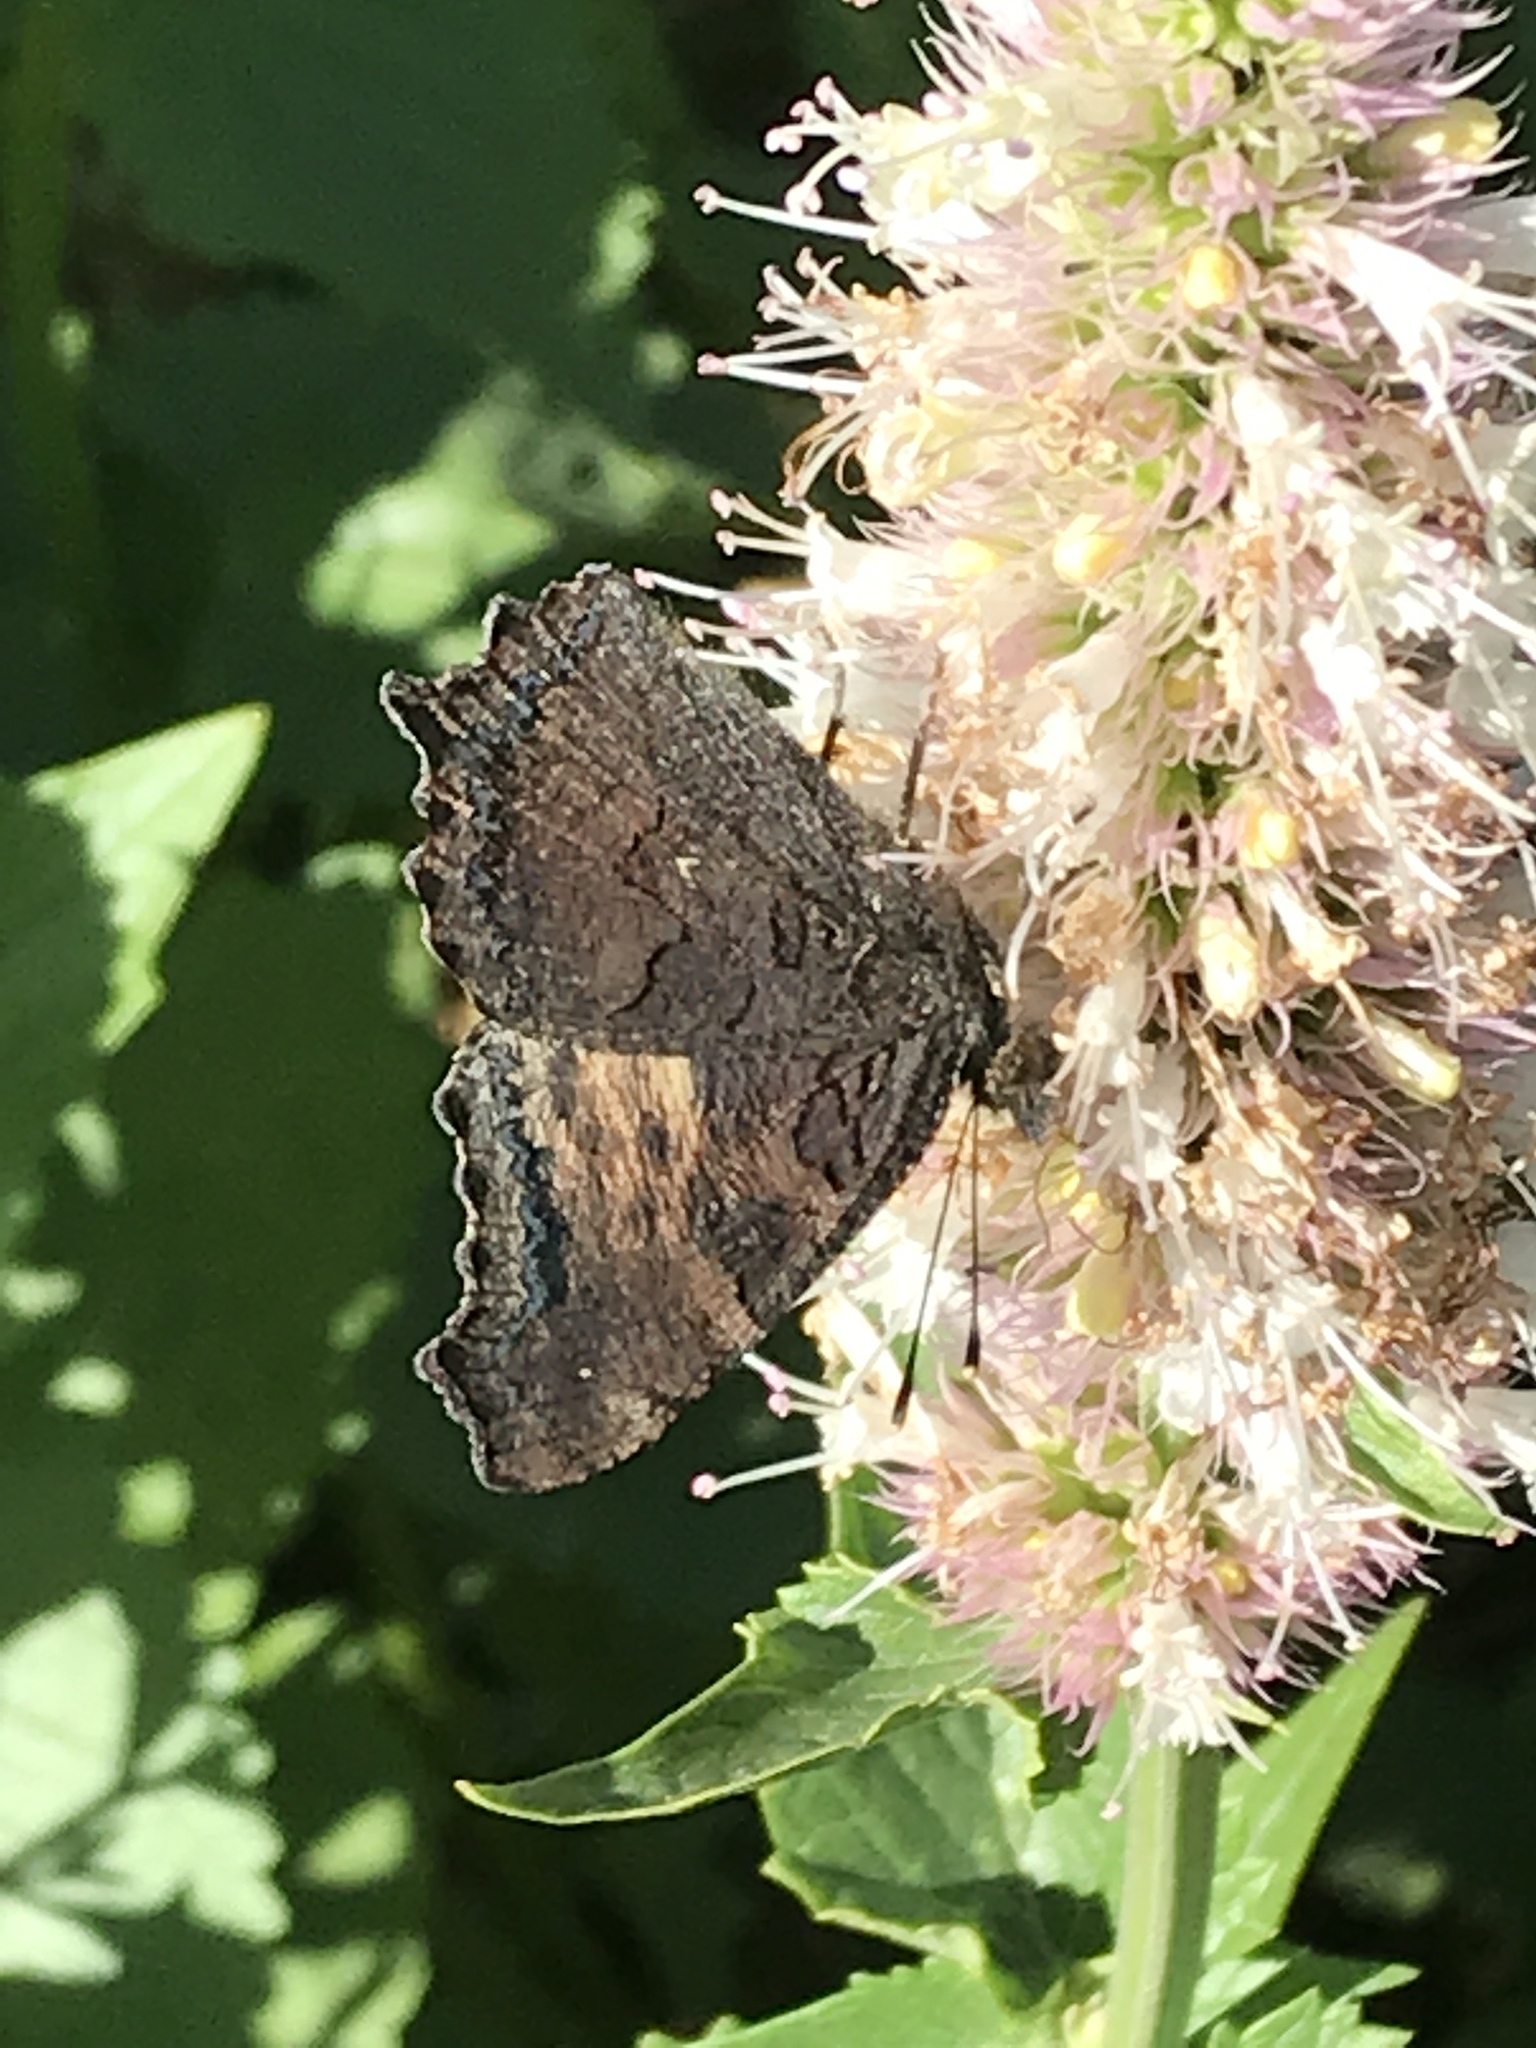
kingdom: Animalia
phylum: Arthropoda
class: Insecta
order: Lepidoptera
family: Nymphalidae
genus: Nymphalis
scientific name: Nymphalis californica
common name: California tortoiseshell
